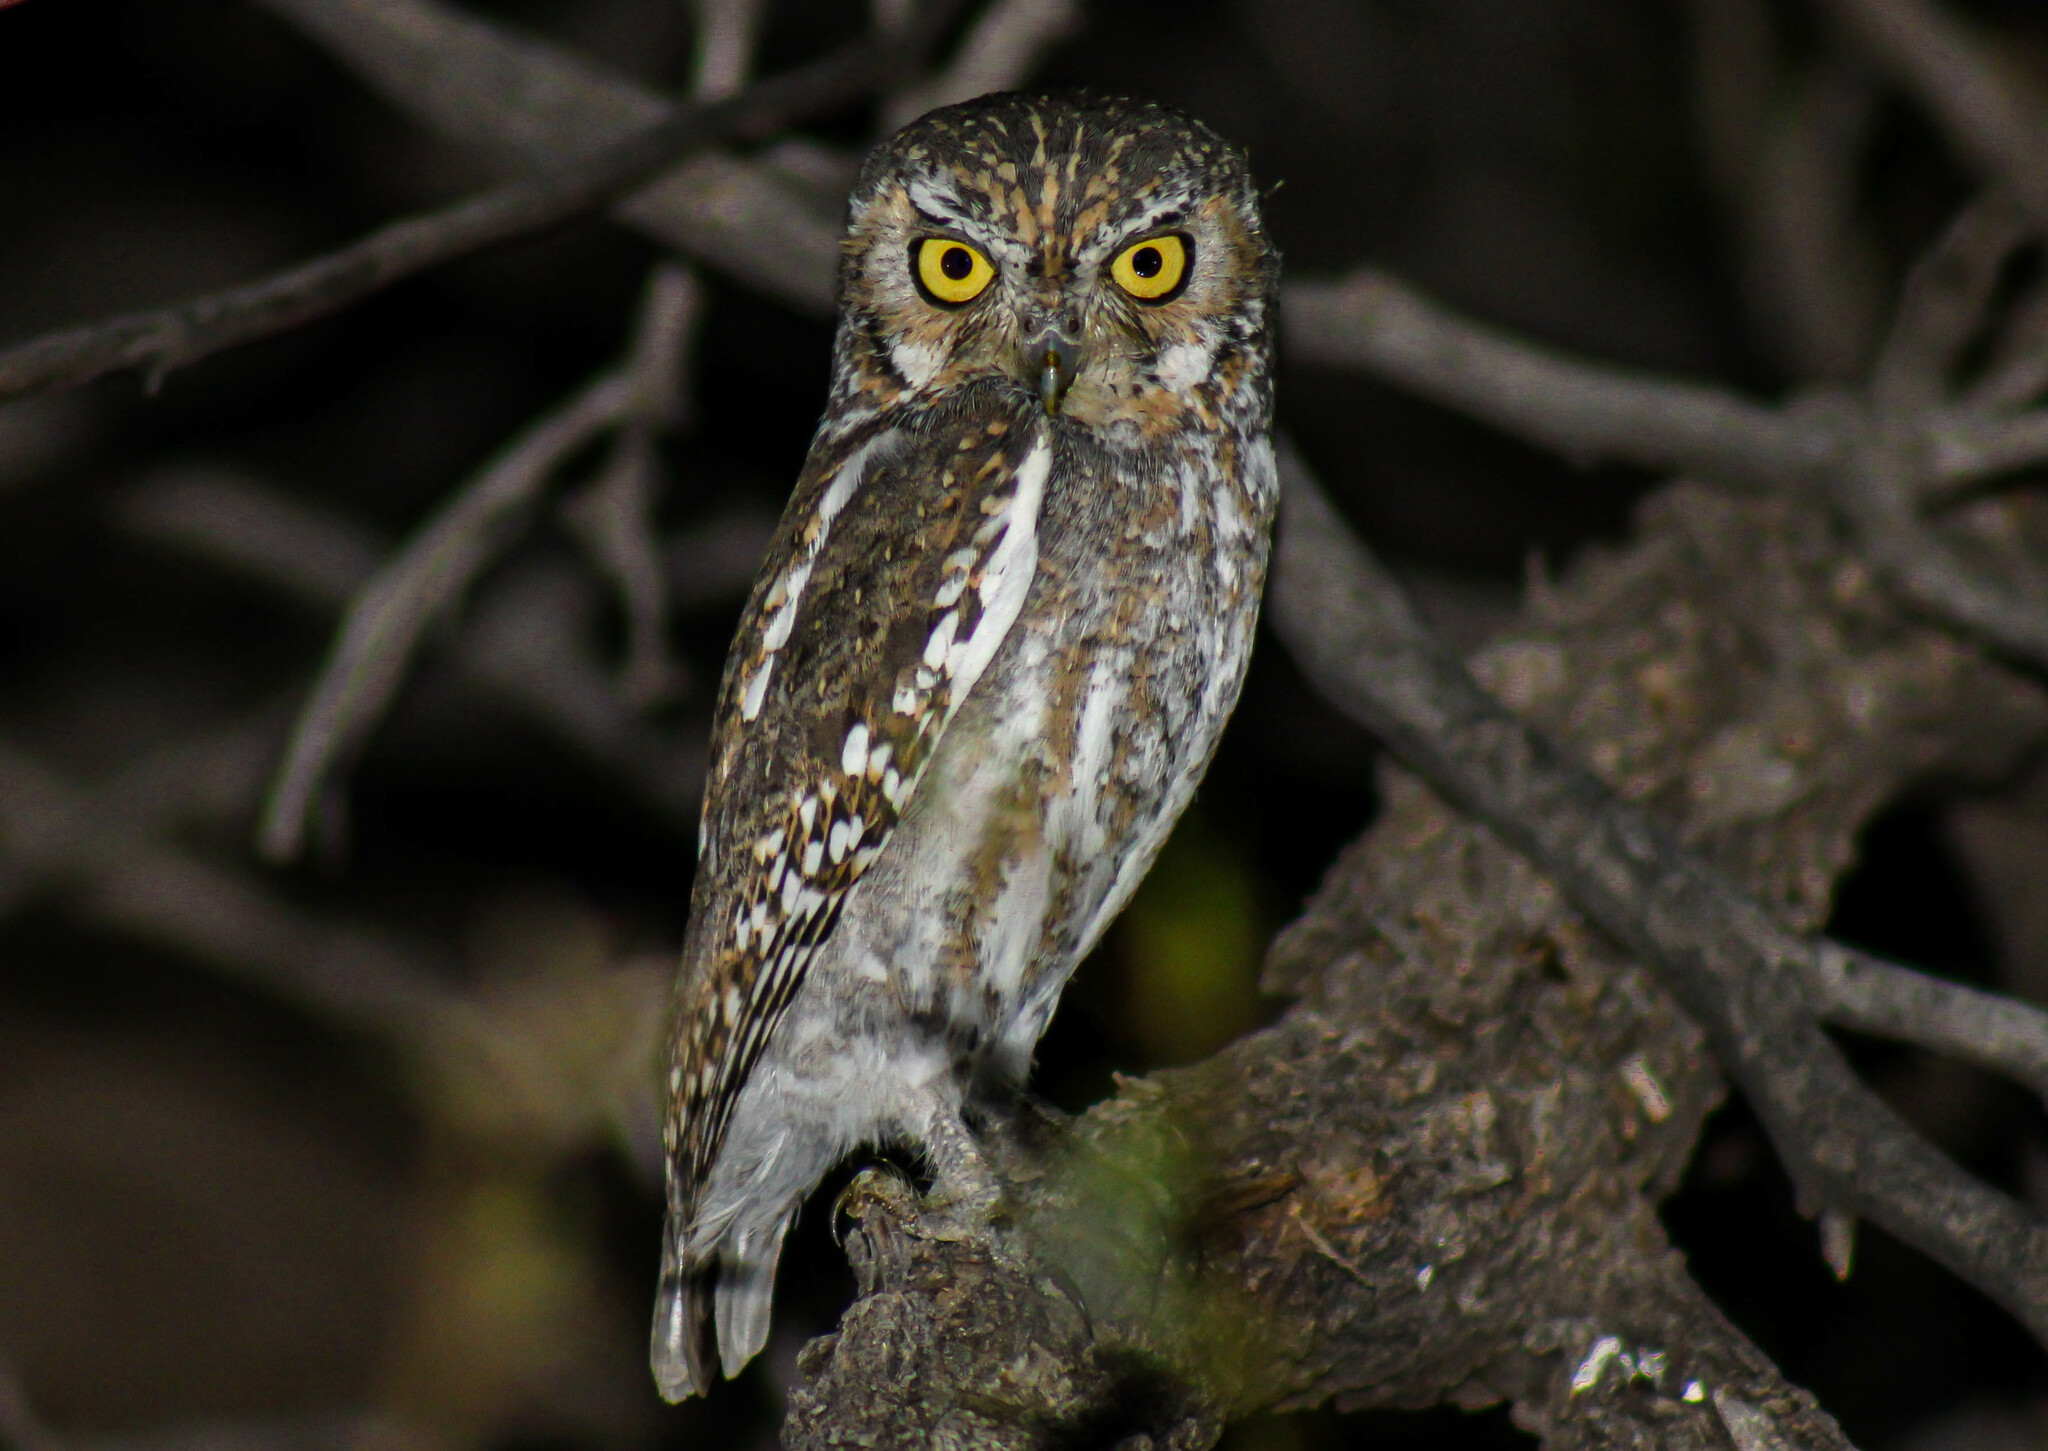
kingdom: Animalia
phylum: Chordata
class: Aves
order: Strigiformes
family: Strigidae
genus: Micrathene
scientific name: Micrathene whitneyi
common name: Elf owl
